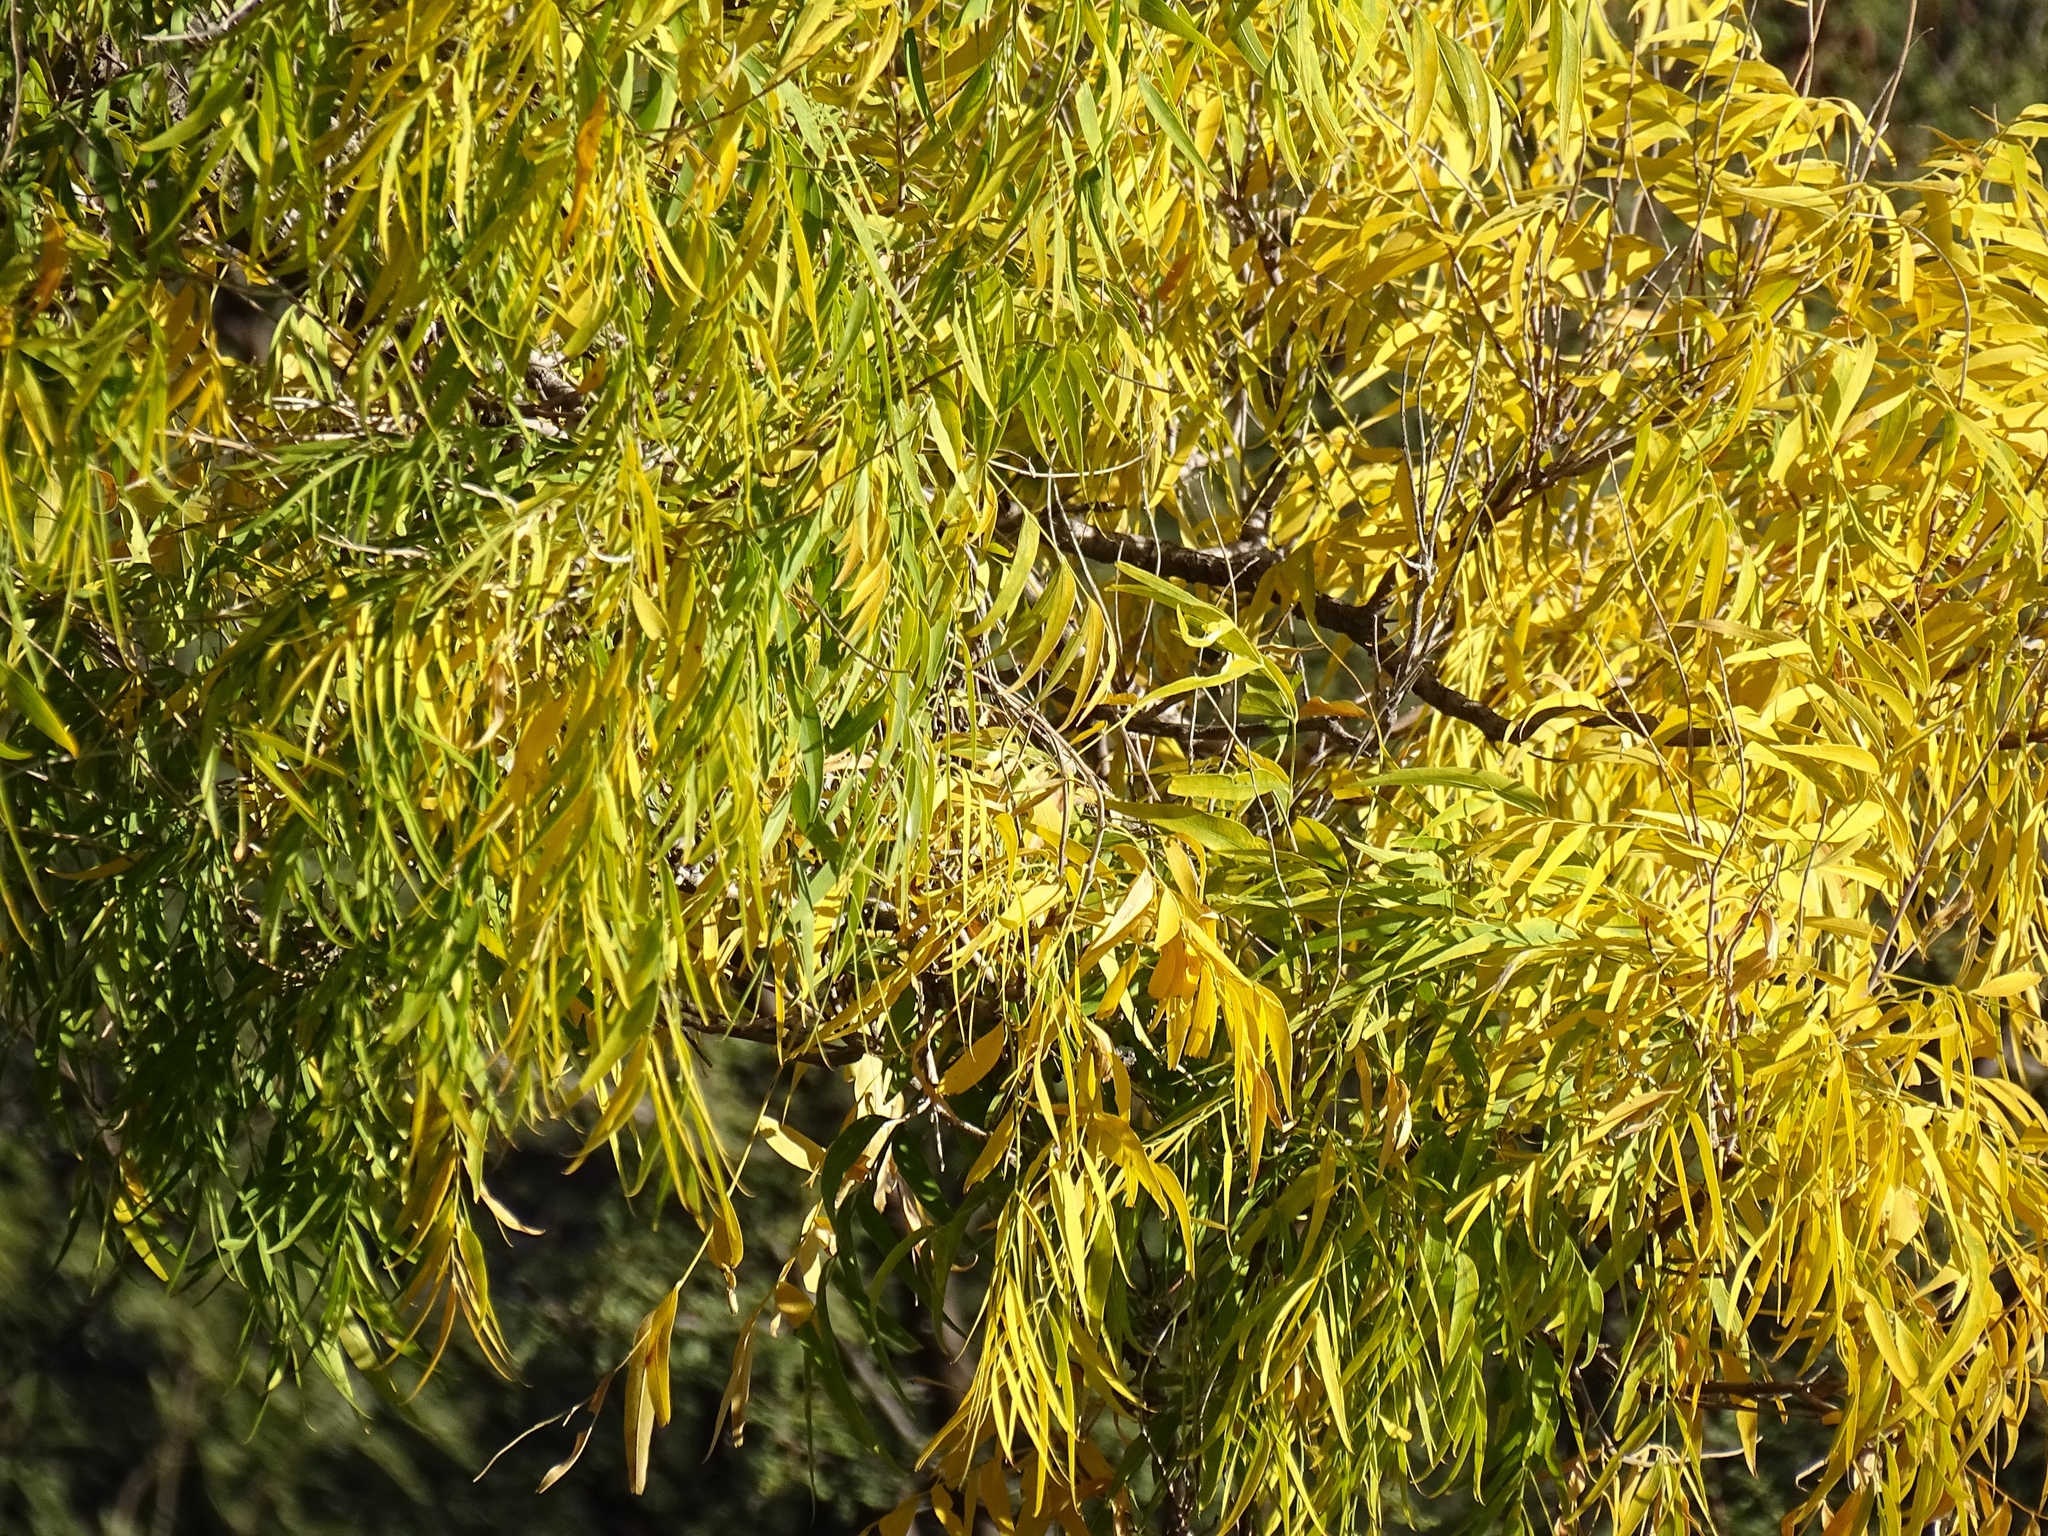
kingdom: Plantae
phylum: Tracheophyta
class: Magnoliopsida
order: Sapindales
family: Sapindaceae
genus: Sapindus
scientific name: Sapindus drummondii
